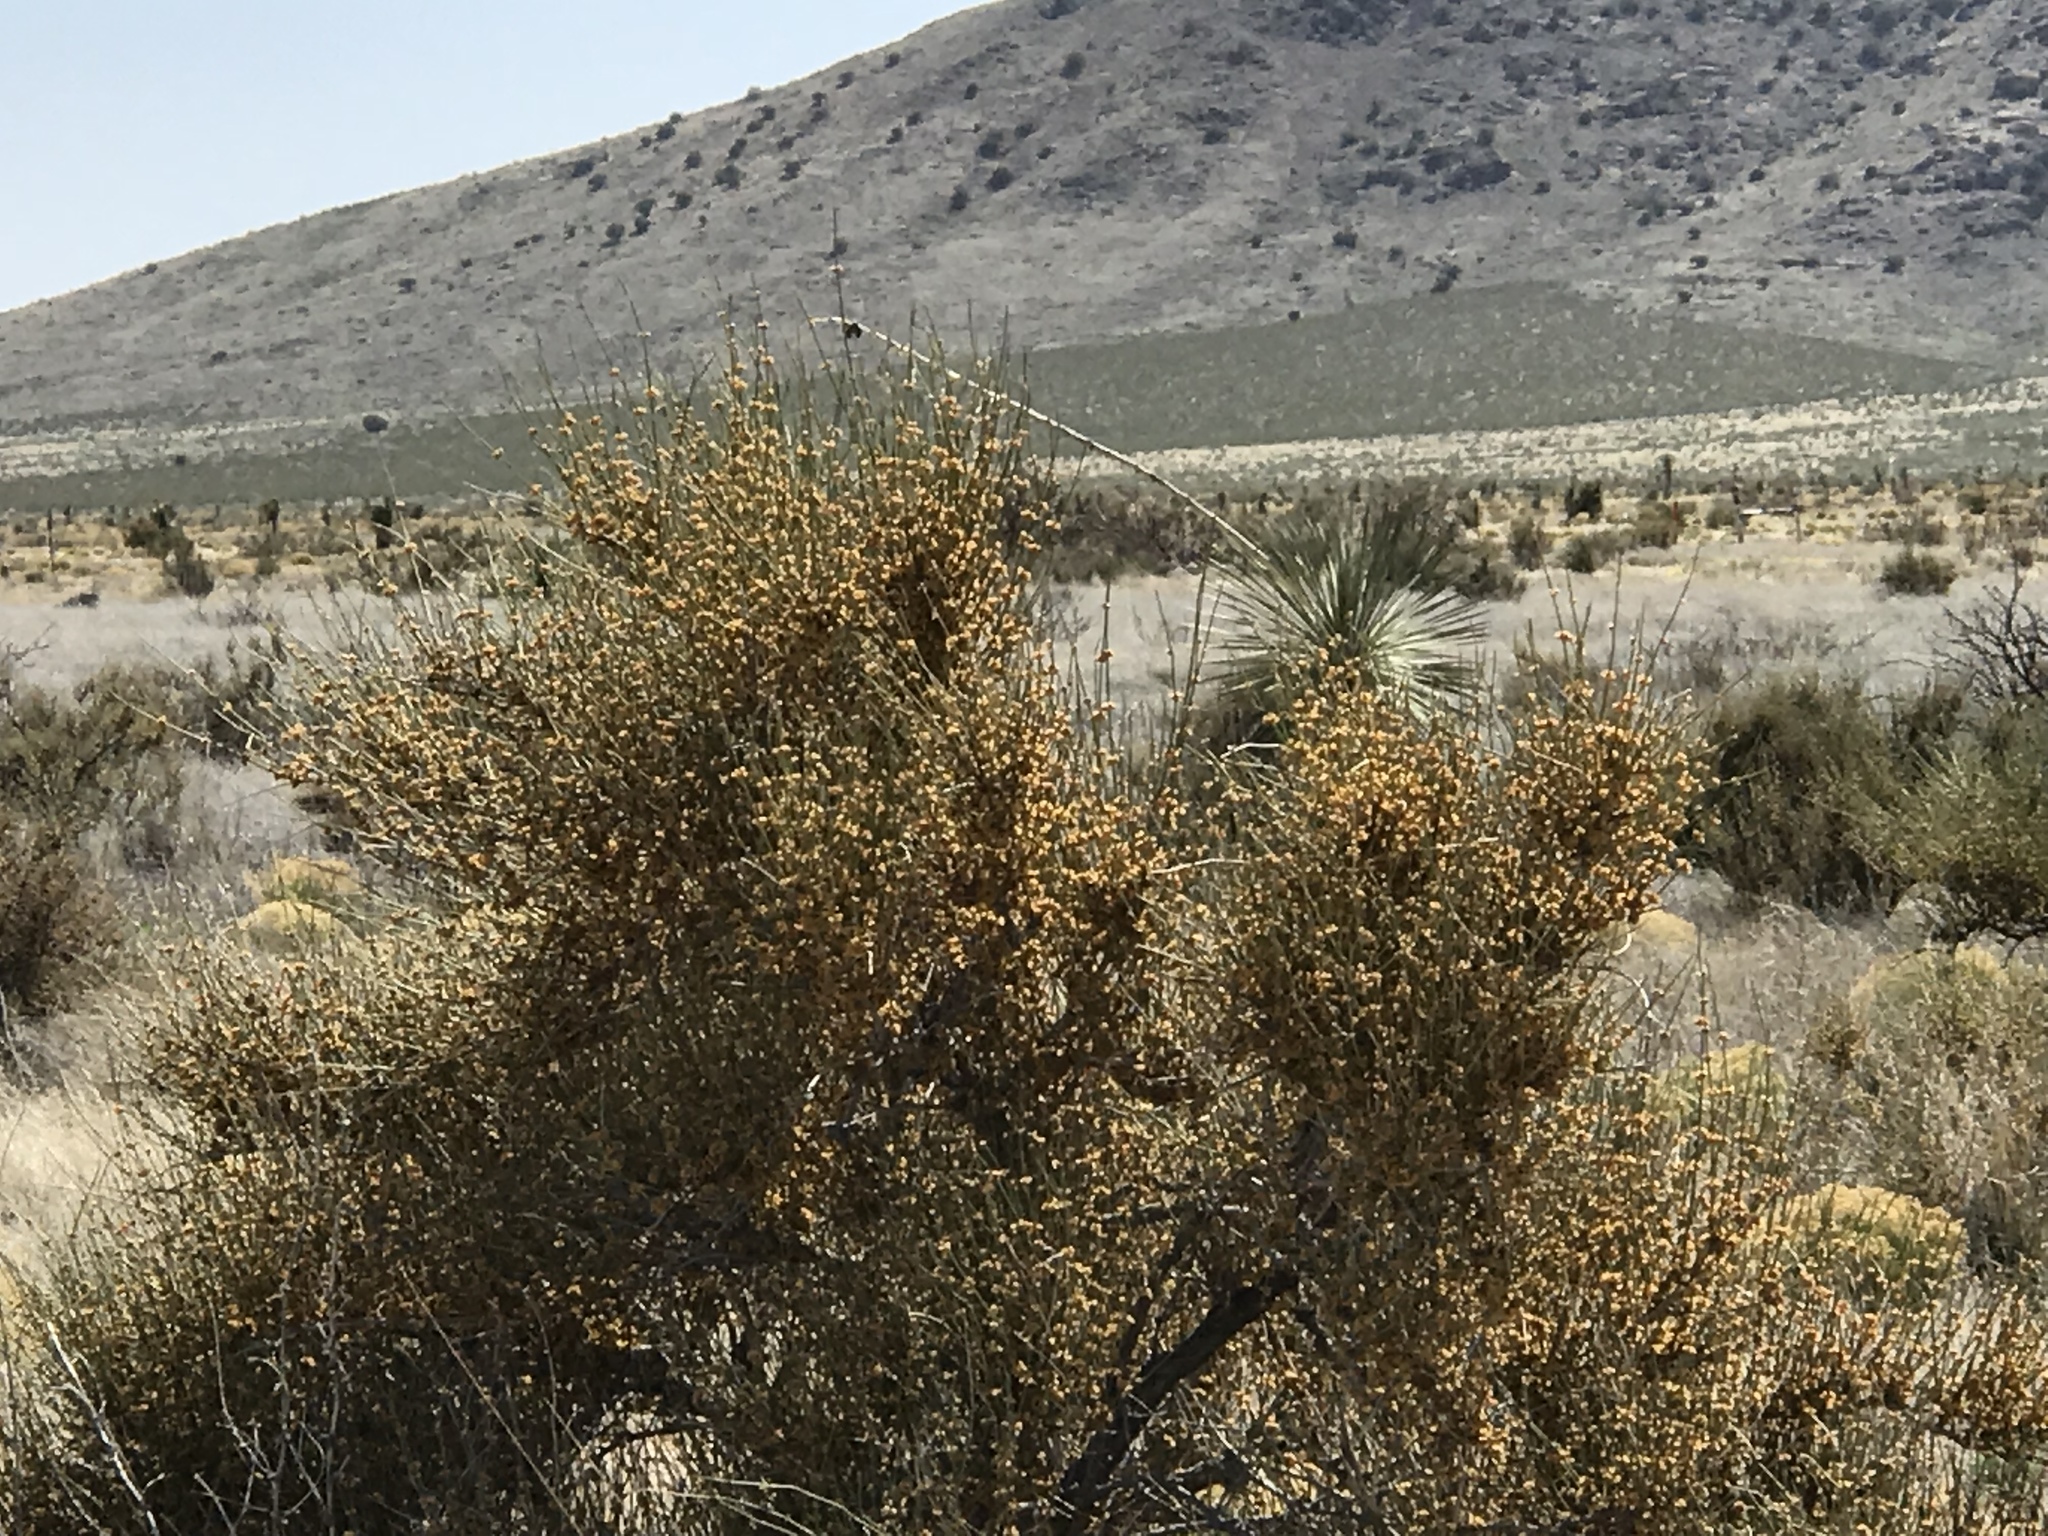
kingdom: Plantae
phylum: Tracheophyta
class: Gnetopsida
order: Ephedrales
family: Ephedraceae
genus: Ephedra
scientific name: Ephedra trifurca
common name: Mexican-tea
